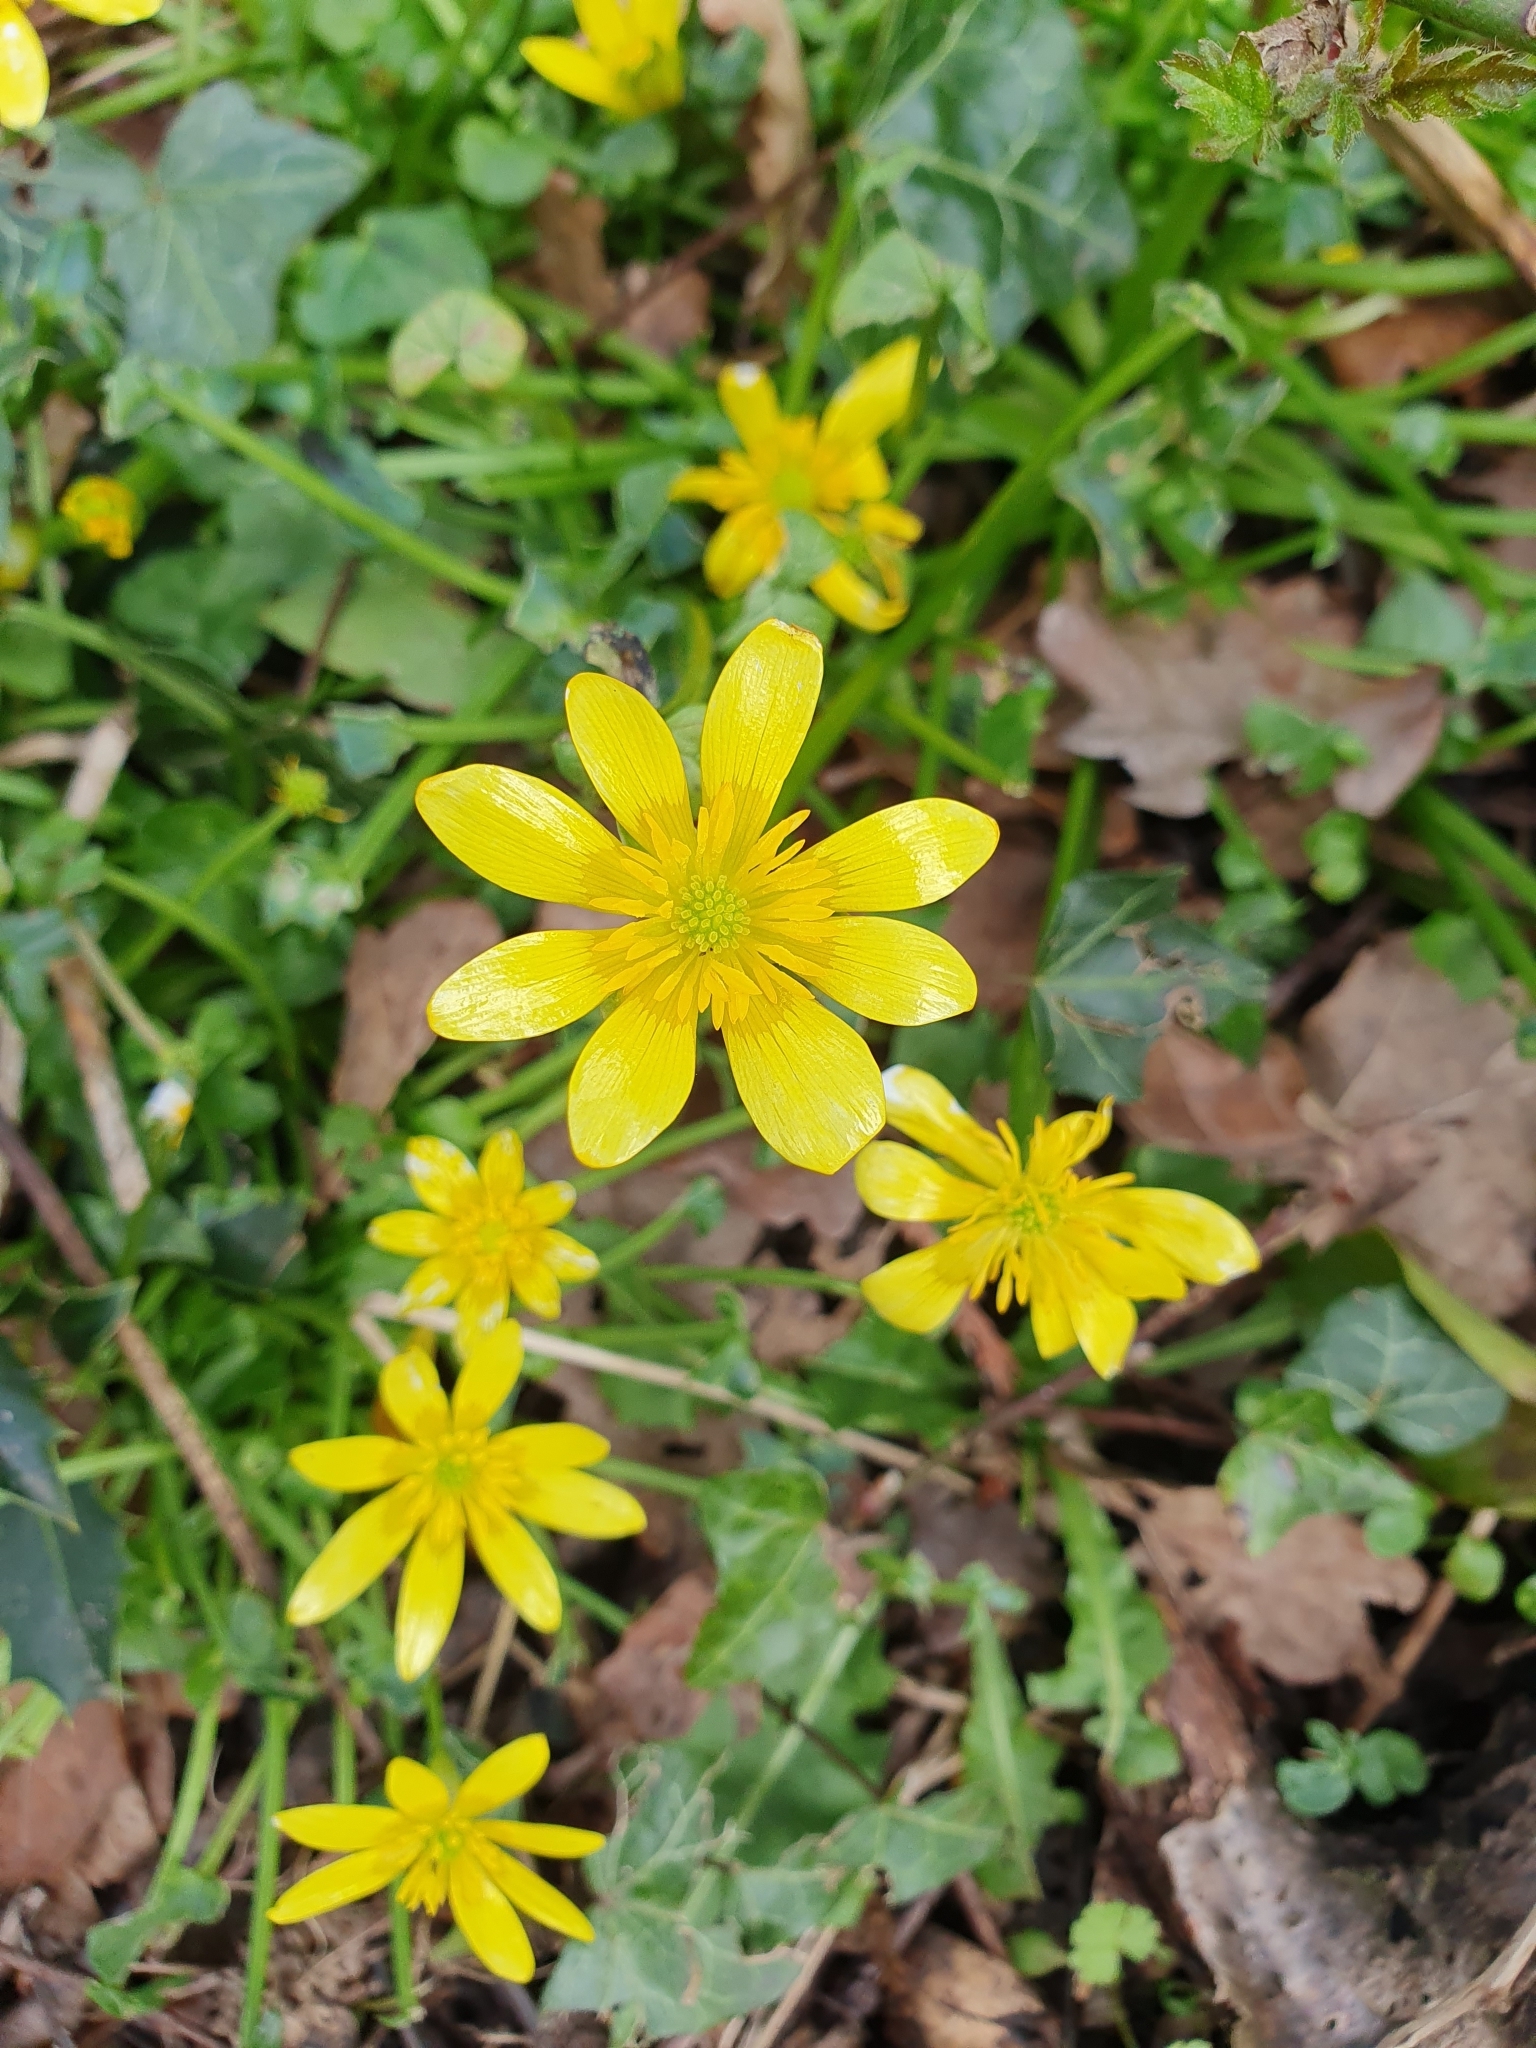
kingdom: Plantae
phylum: Tracheophyta
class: Magnoliopsida
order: Ranunculales
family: Ranunculaceae
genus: Ficaria
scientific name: Ficaria verna
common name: Lesser celandine
